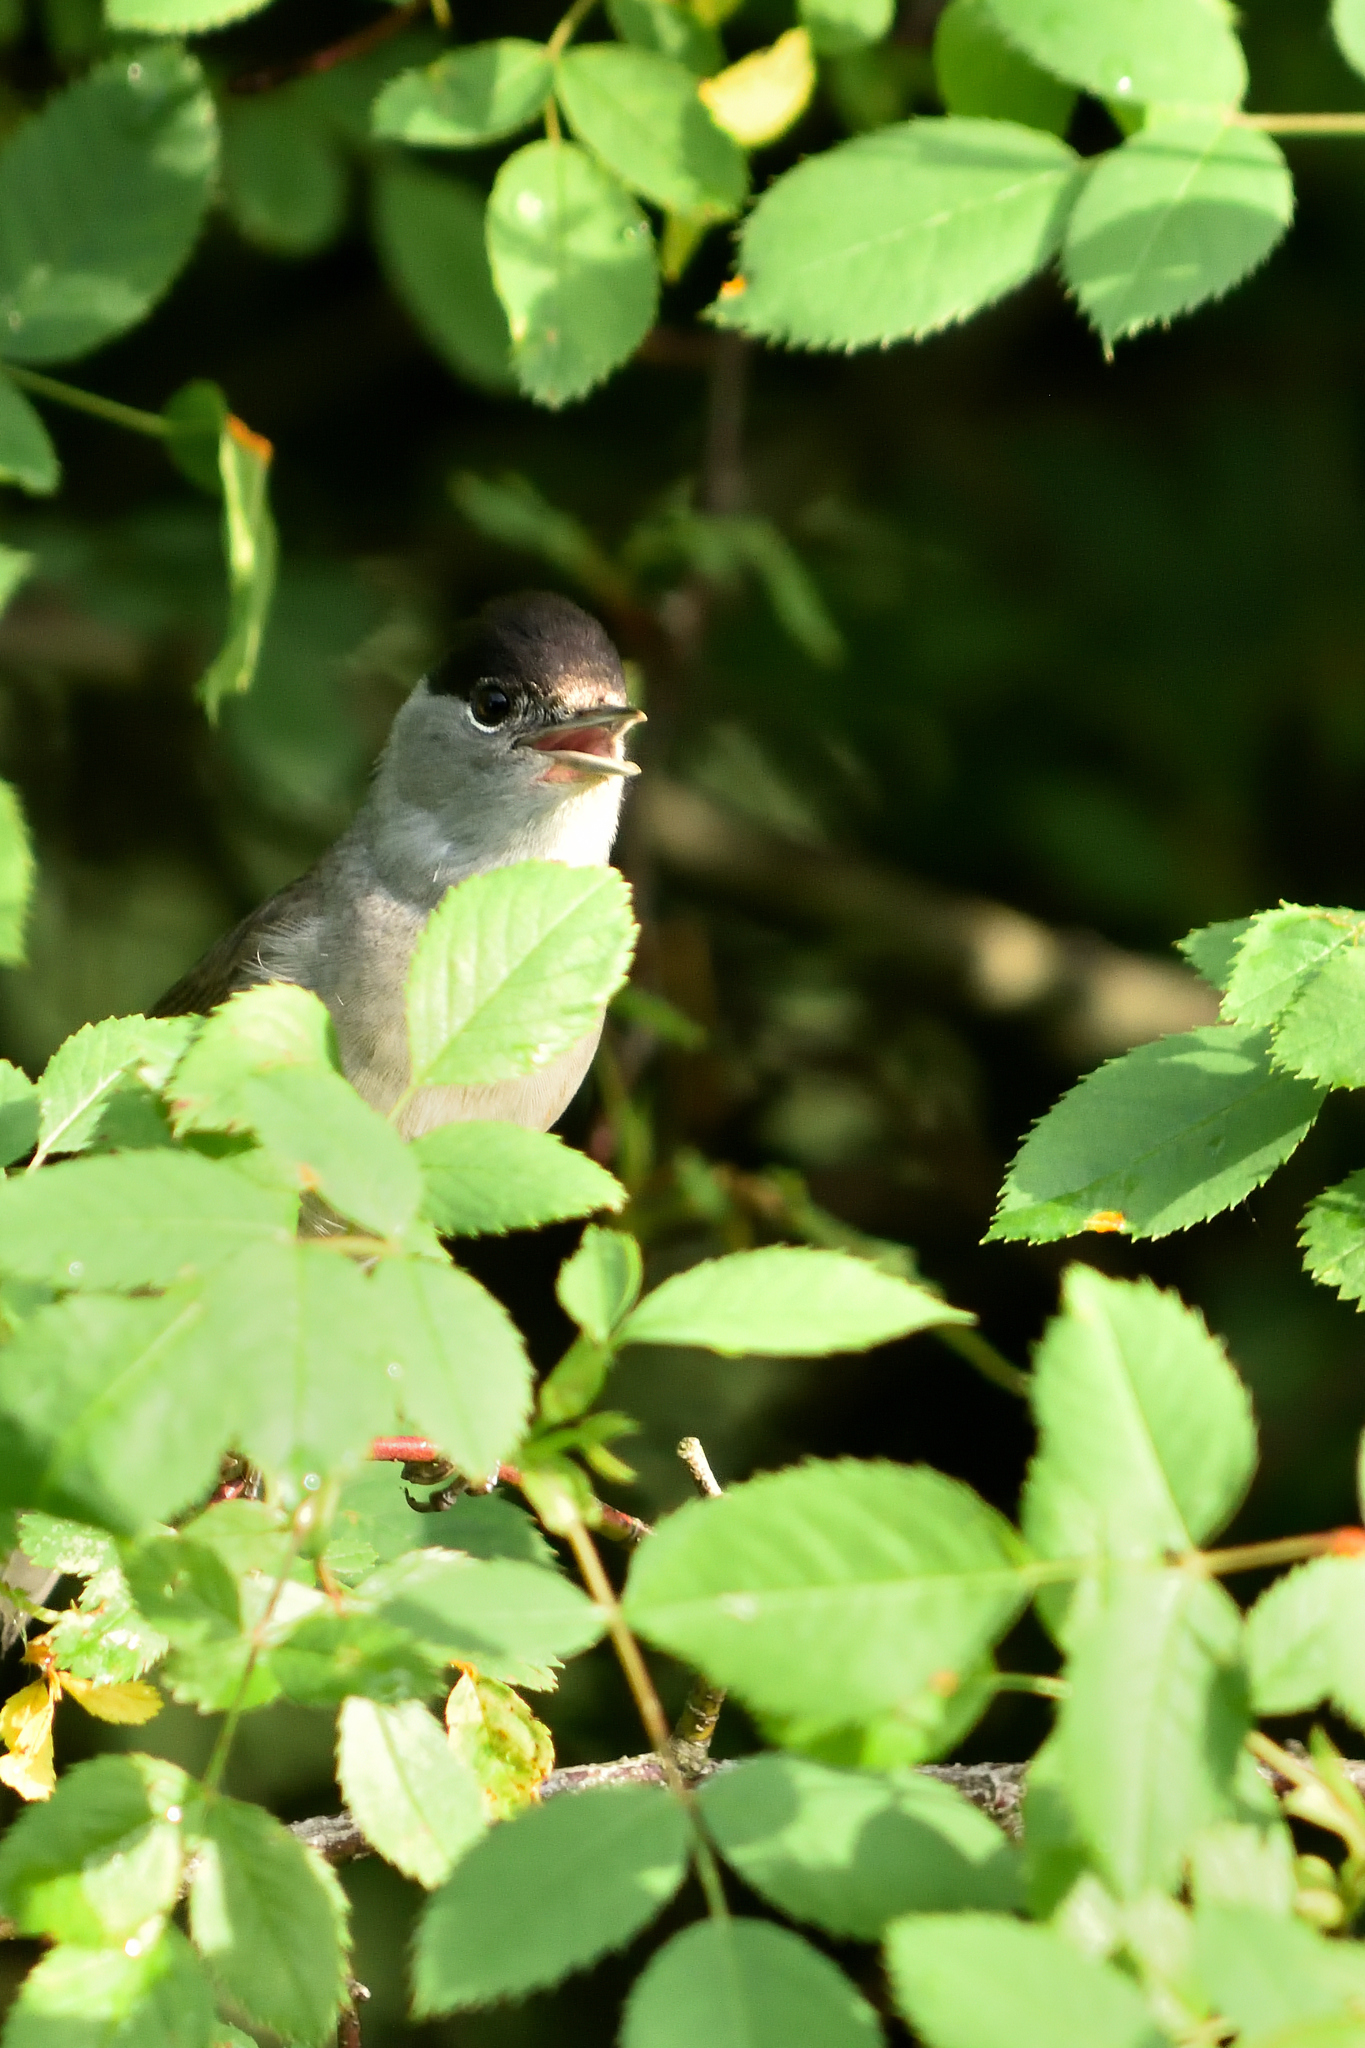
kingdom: Animalia
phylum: Chordata
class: Aves
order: Passeriformes
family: Sylviidae
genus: Sylvia
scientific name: Sylvia atricapilla
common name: Eurasian blackcap
